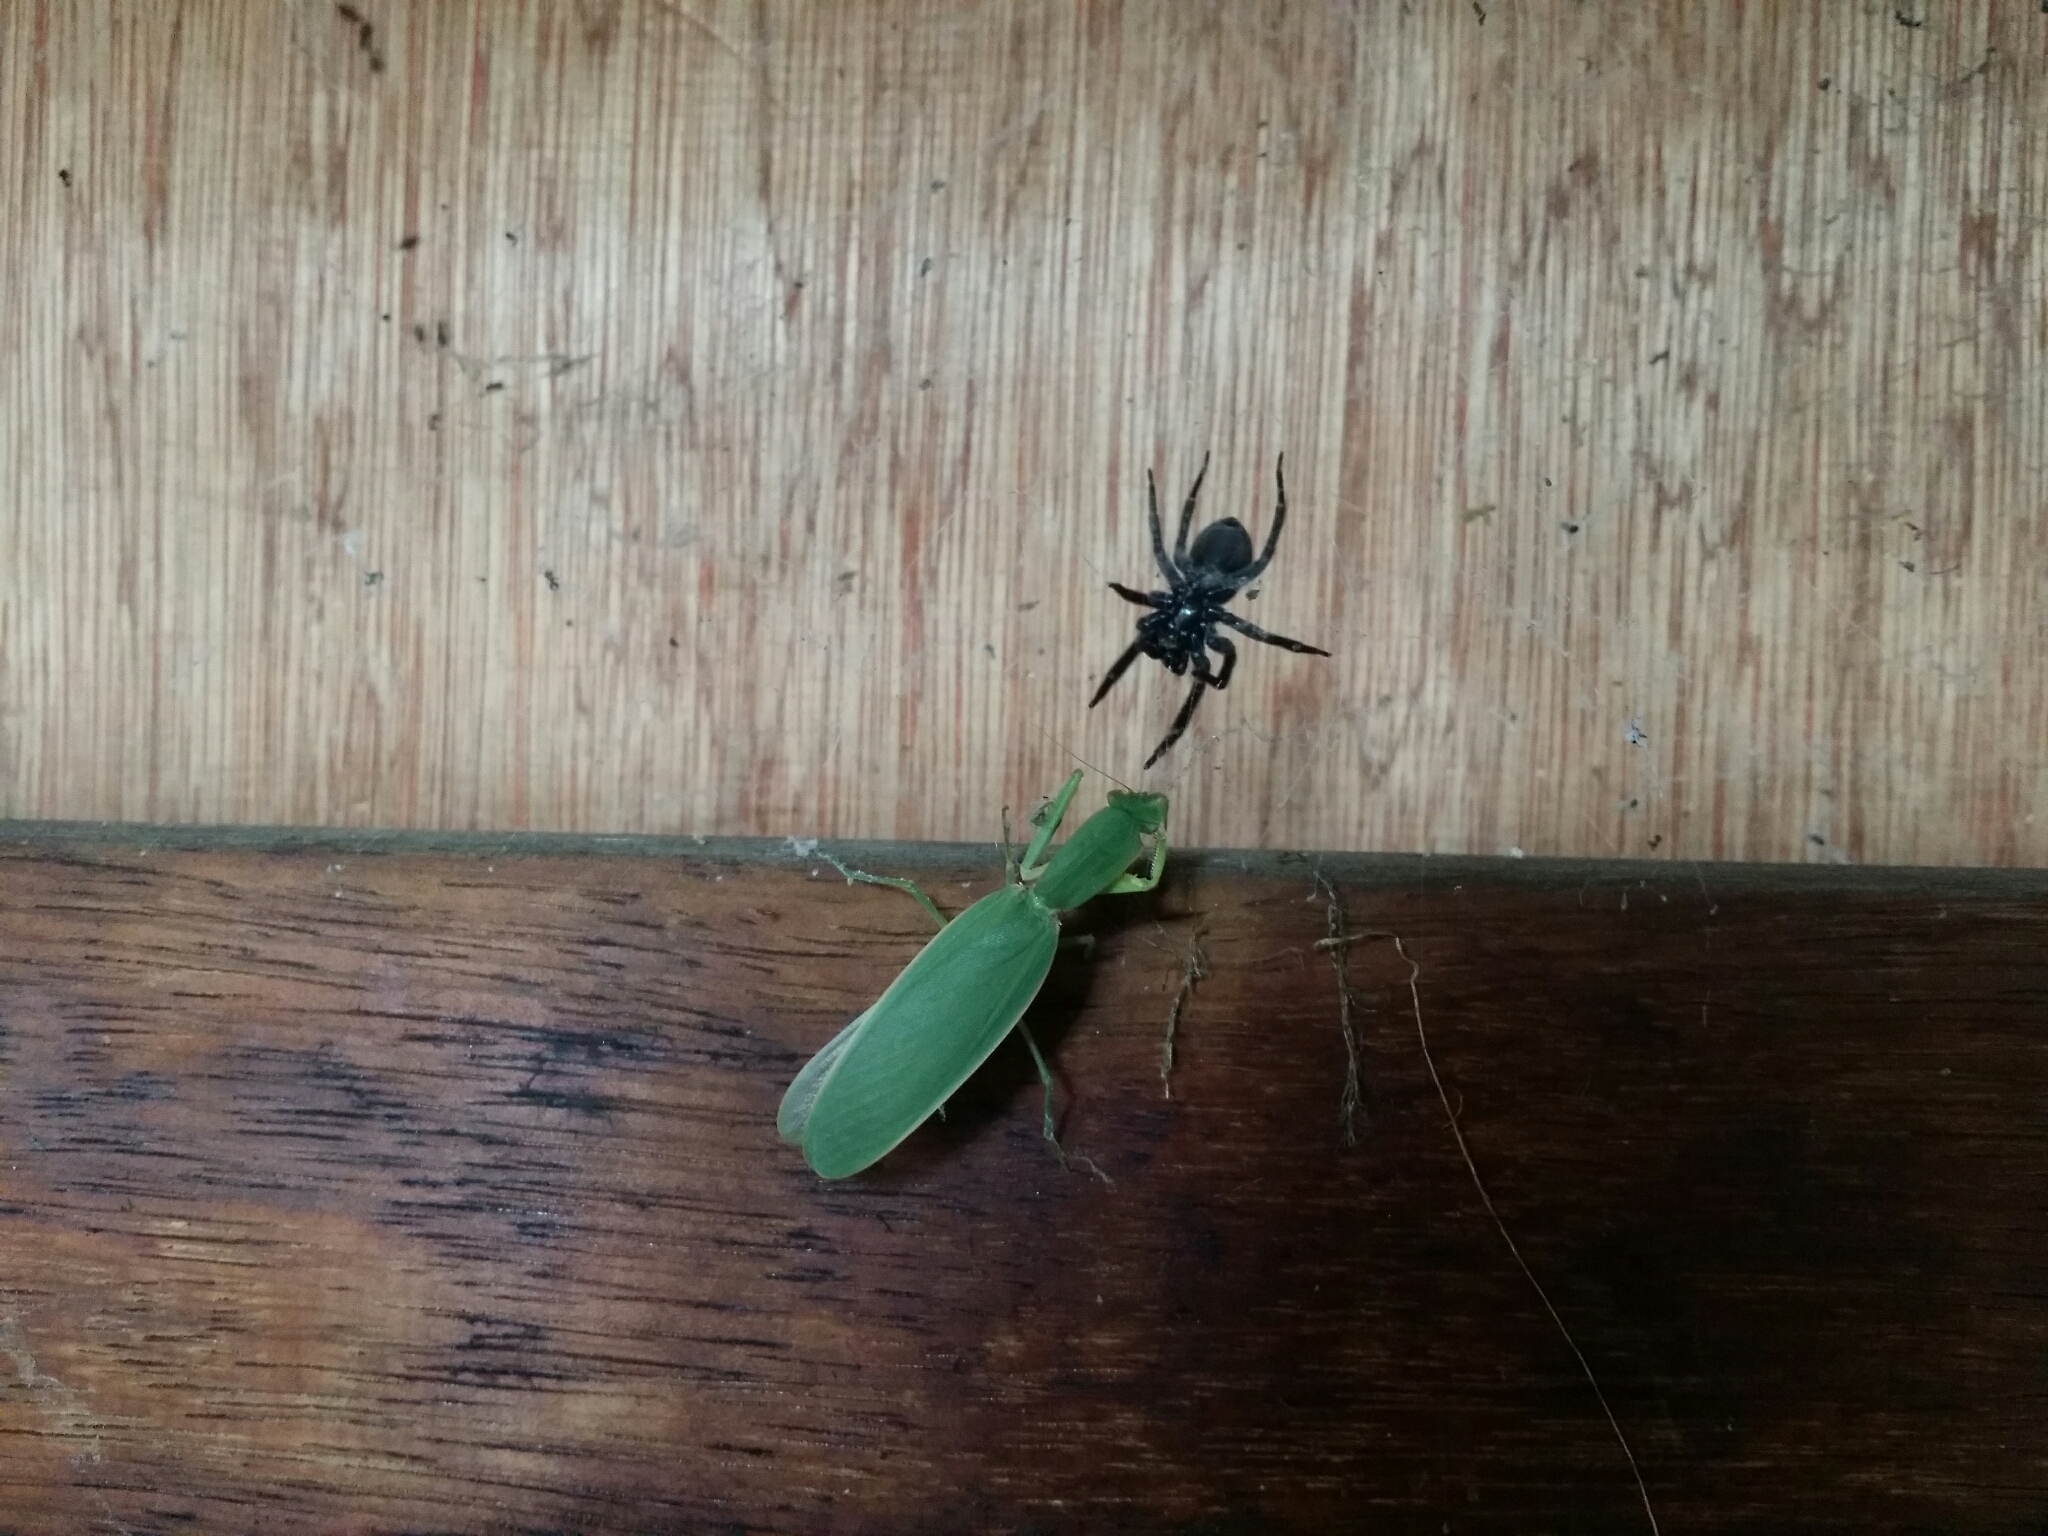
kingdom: Animalia
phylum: Arthropoda
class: Insecta
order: Mantodea
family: Mantidae
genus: Orthodera
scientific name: Orthodera ministralis
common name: Mantis
